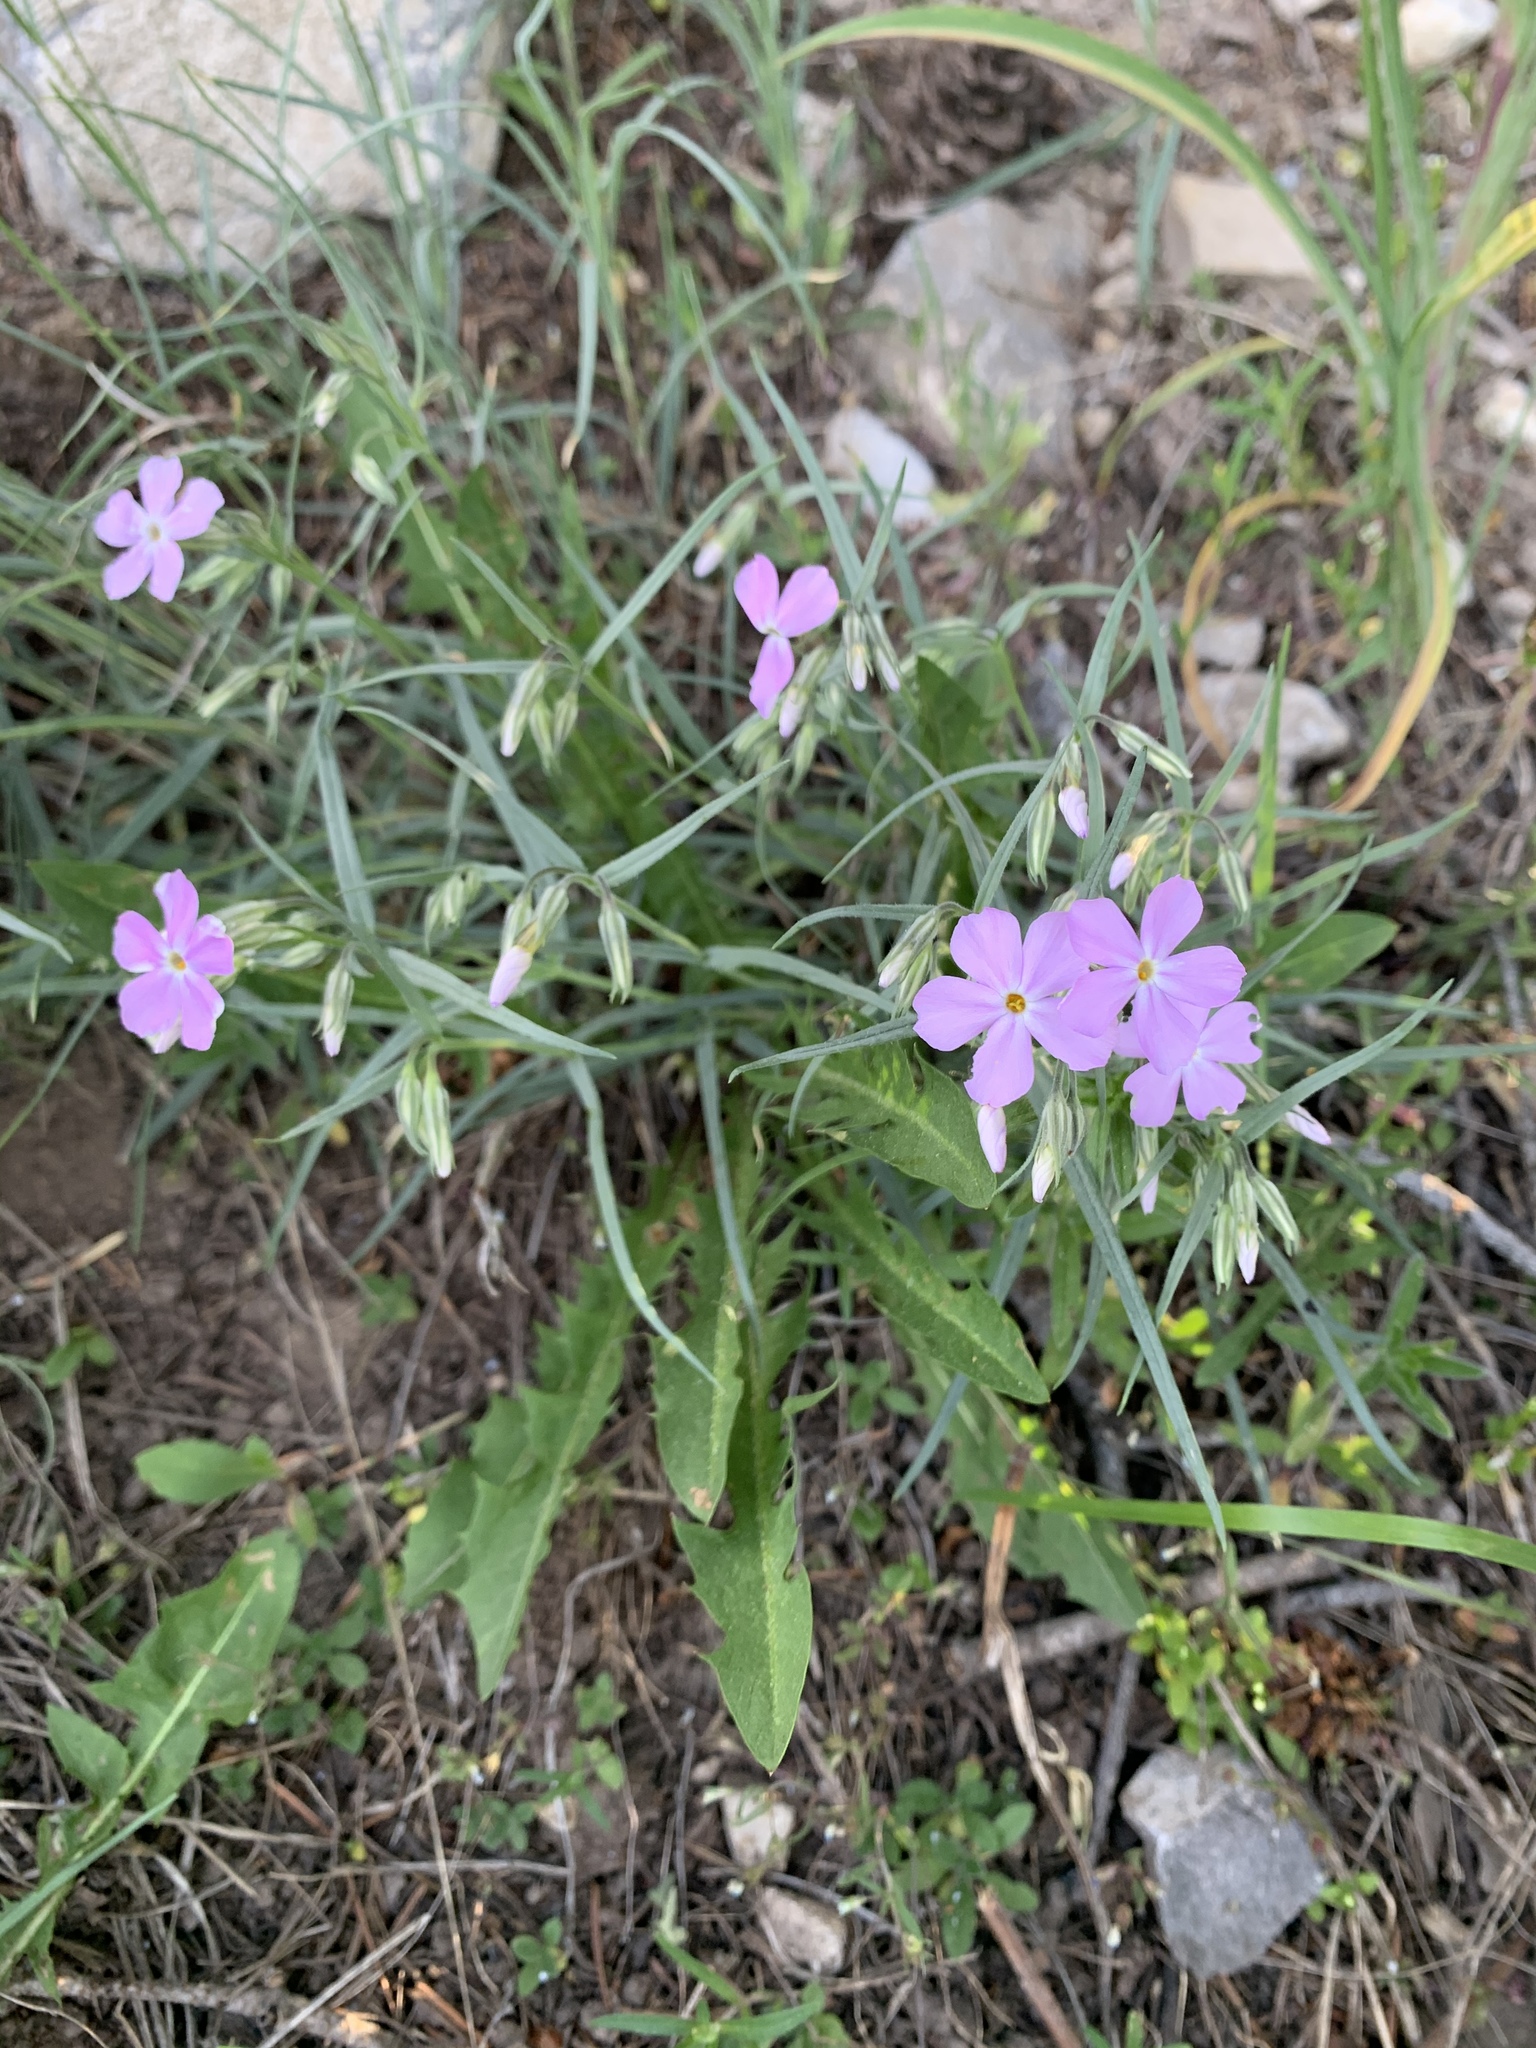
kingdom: Plantae
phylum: Tracheophyta
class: Magnoliopsida
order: Ericales
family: Polemoniaceae
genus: Phlox
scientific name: Phlox longifolia
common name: Longleaf phlox
